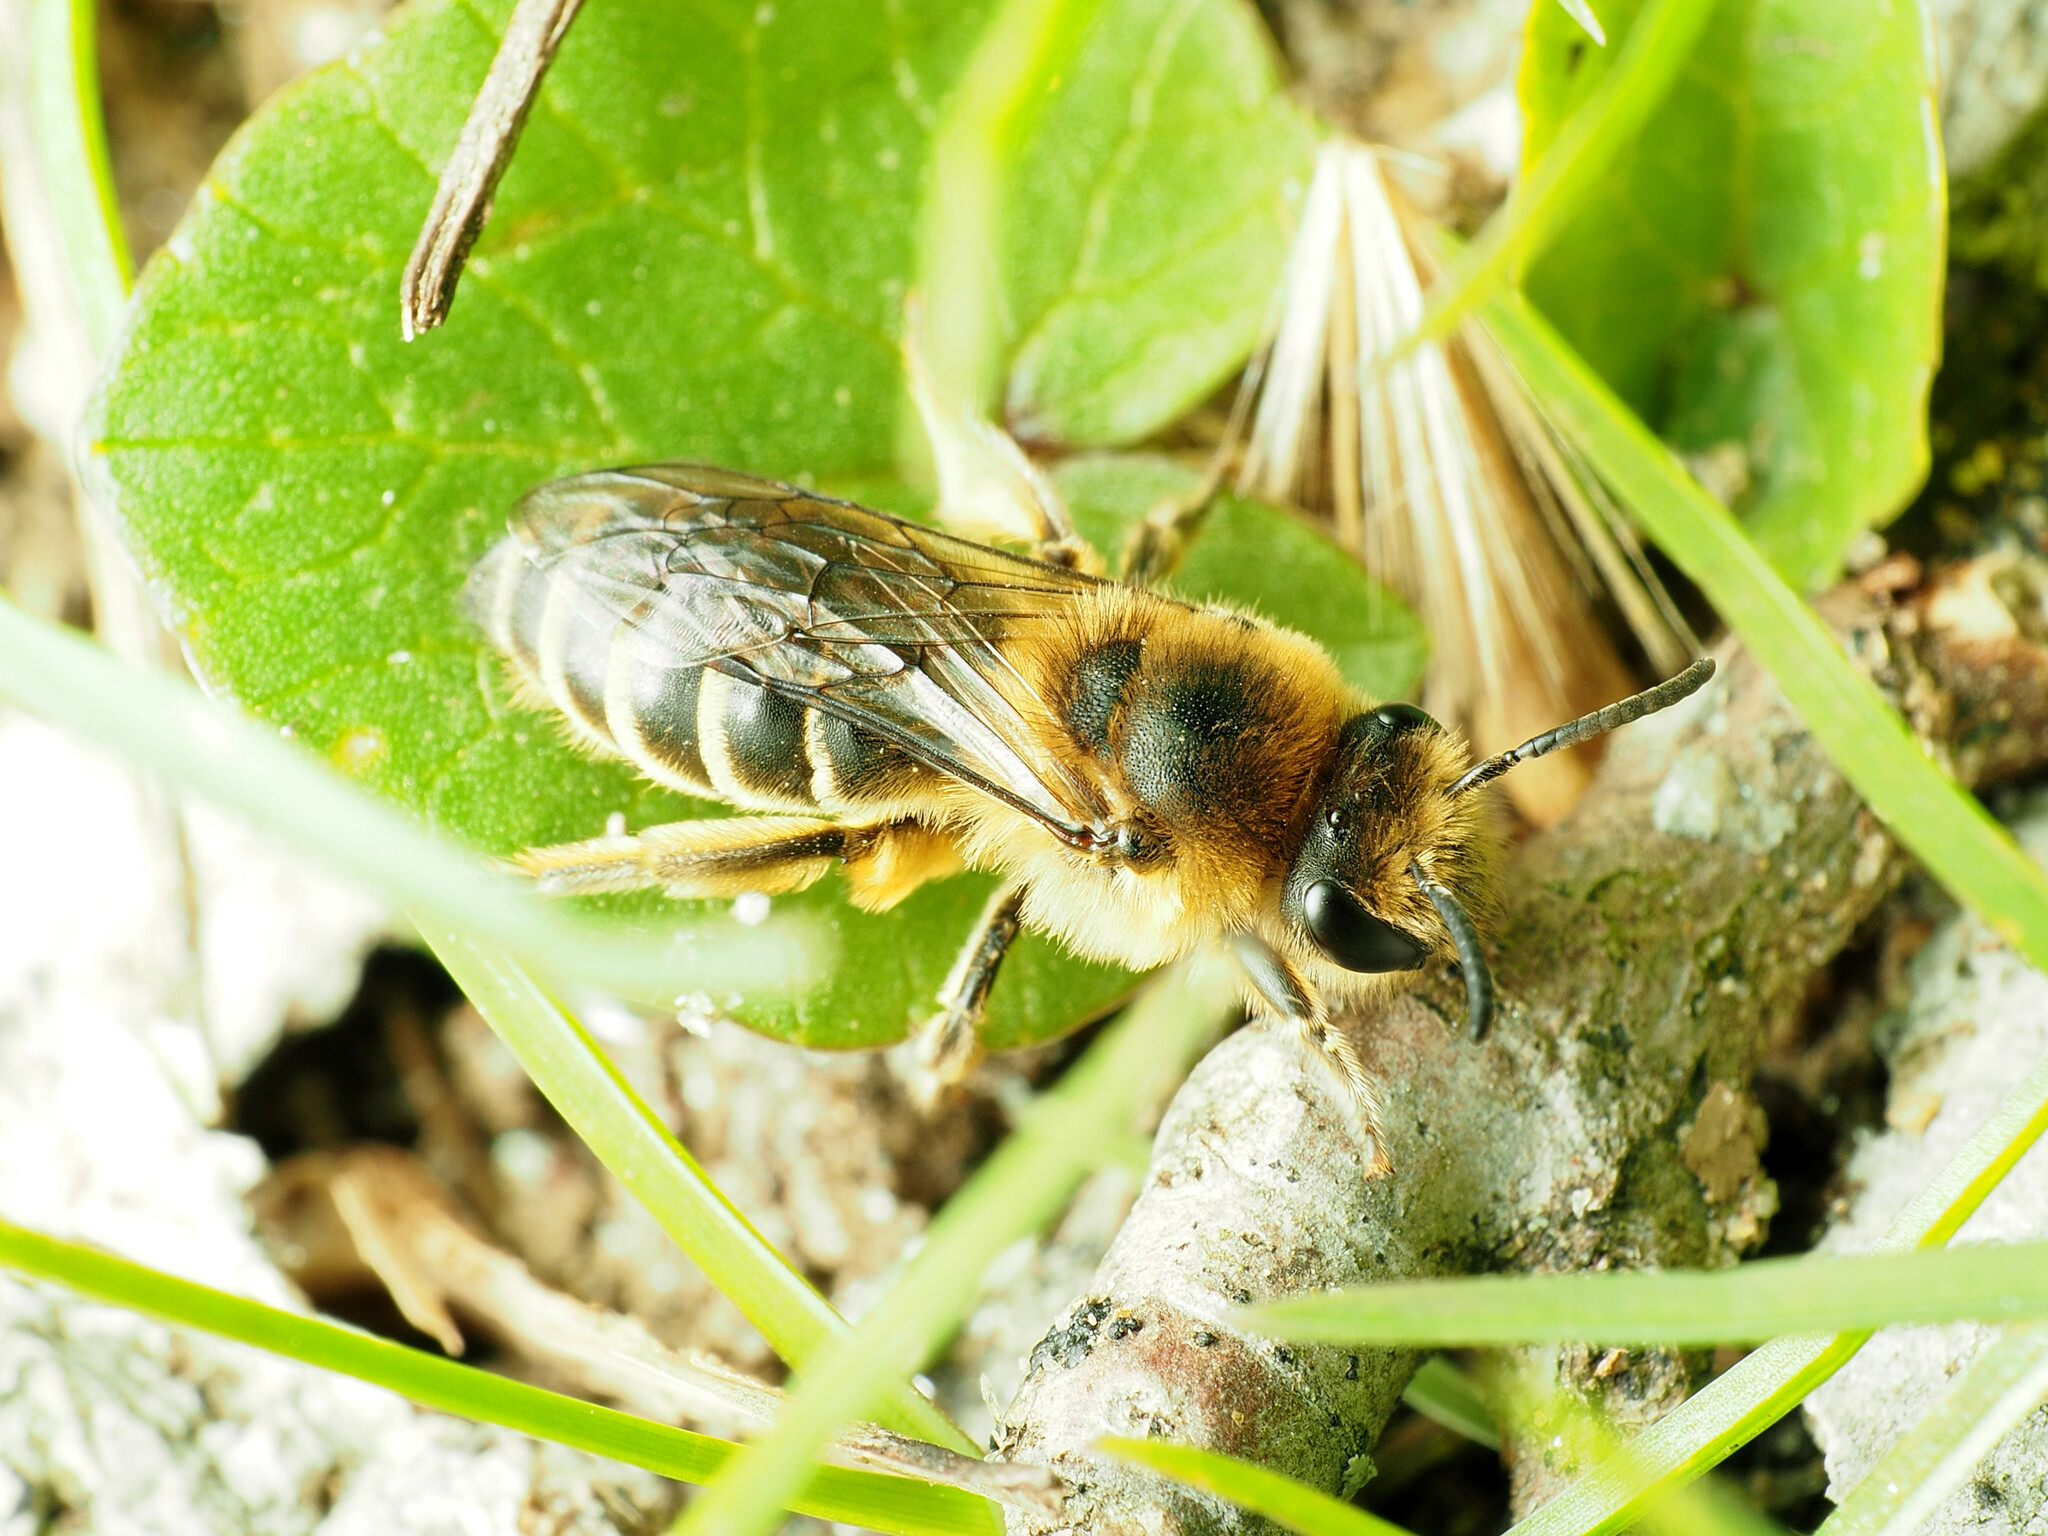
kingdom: Animalia
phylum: Arthropoda
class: Insecta
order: Hymenoptera
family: Colletidae
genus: Colletes
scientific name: Colletes inaequalis
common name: Unequal cellophane bee
